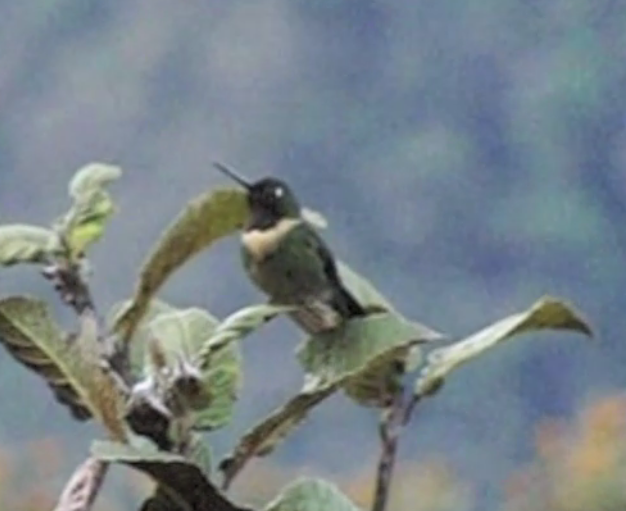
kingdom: Animalia
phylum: Chordata
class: Aves
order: Apodiformes
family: Trochilidae
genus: Heliangelus
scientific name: Heliangelus amethysticollis
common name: Amethyst-throated sunangel
